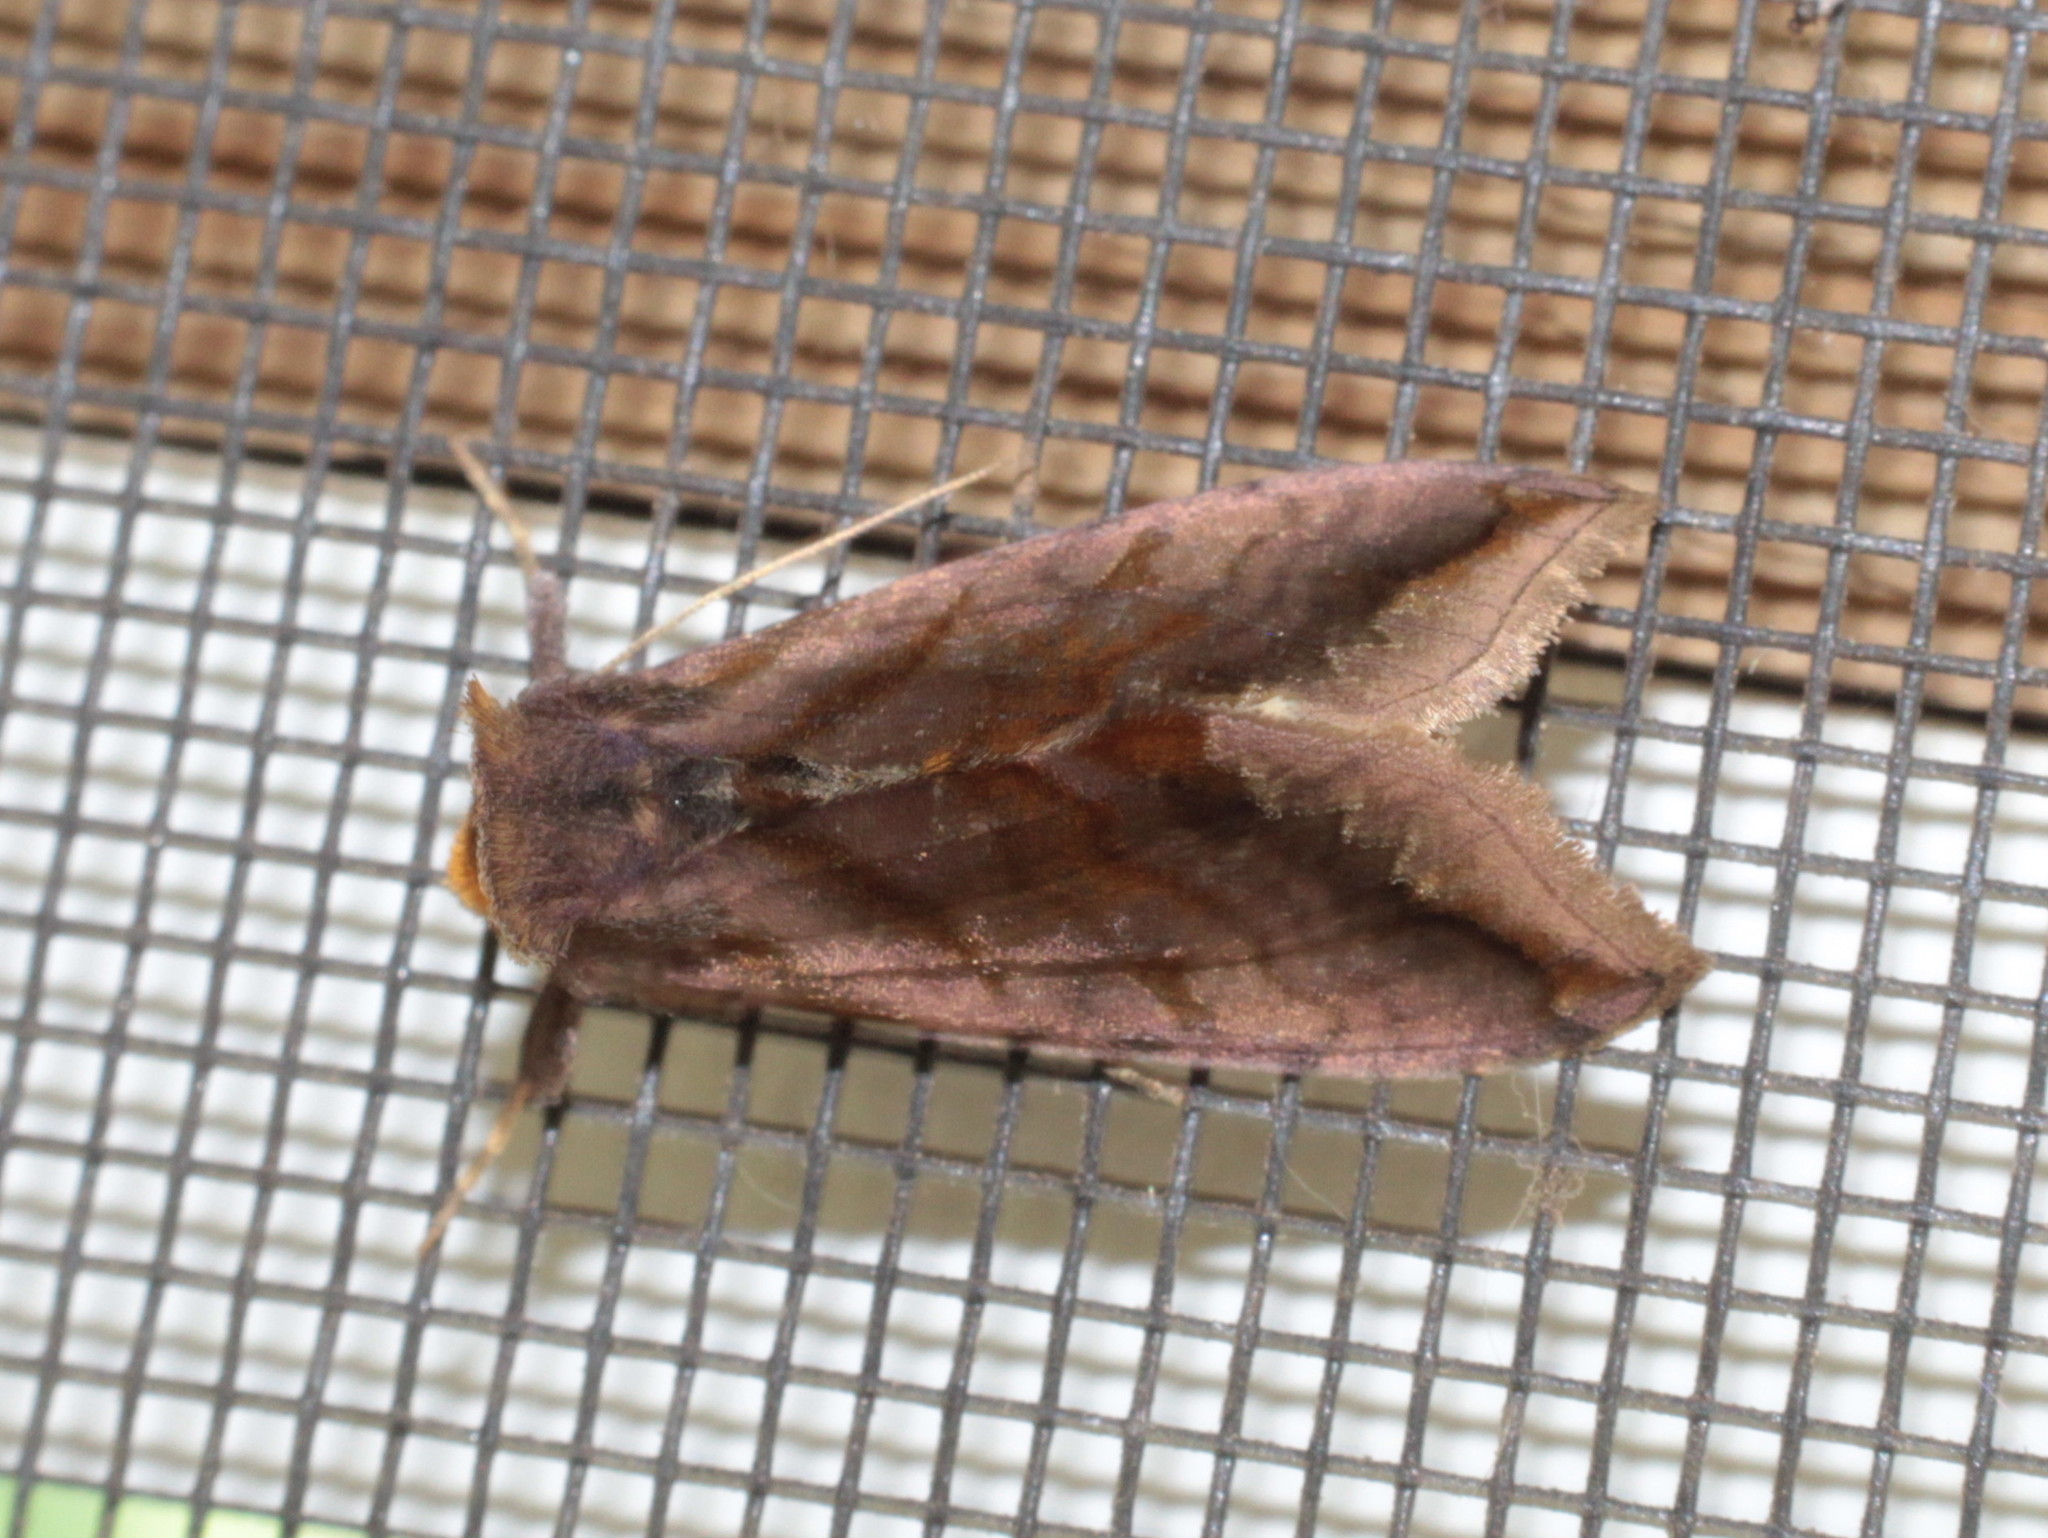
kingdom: Animalia
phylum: Arthropoda
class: Insecta
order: Lepidoptera
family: Noctuidae
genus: Allagrapha
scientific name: Allagrapha aerea
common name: Unspotted looper moth
